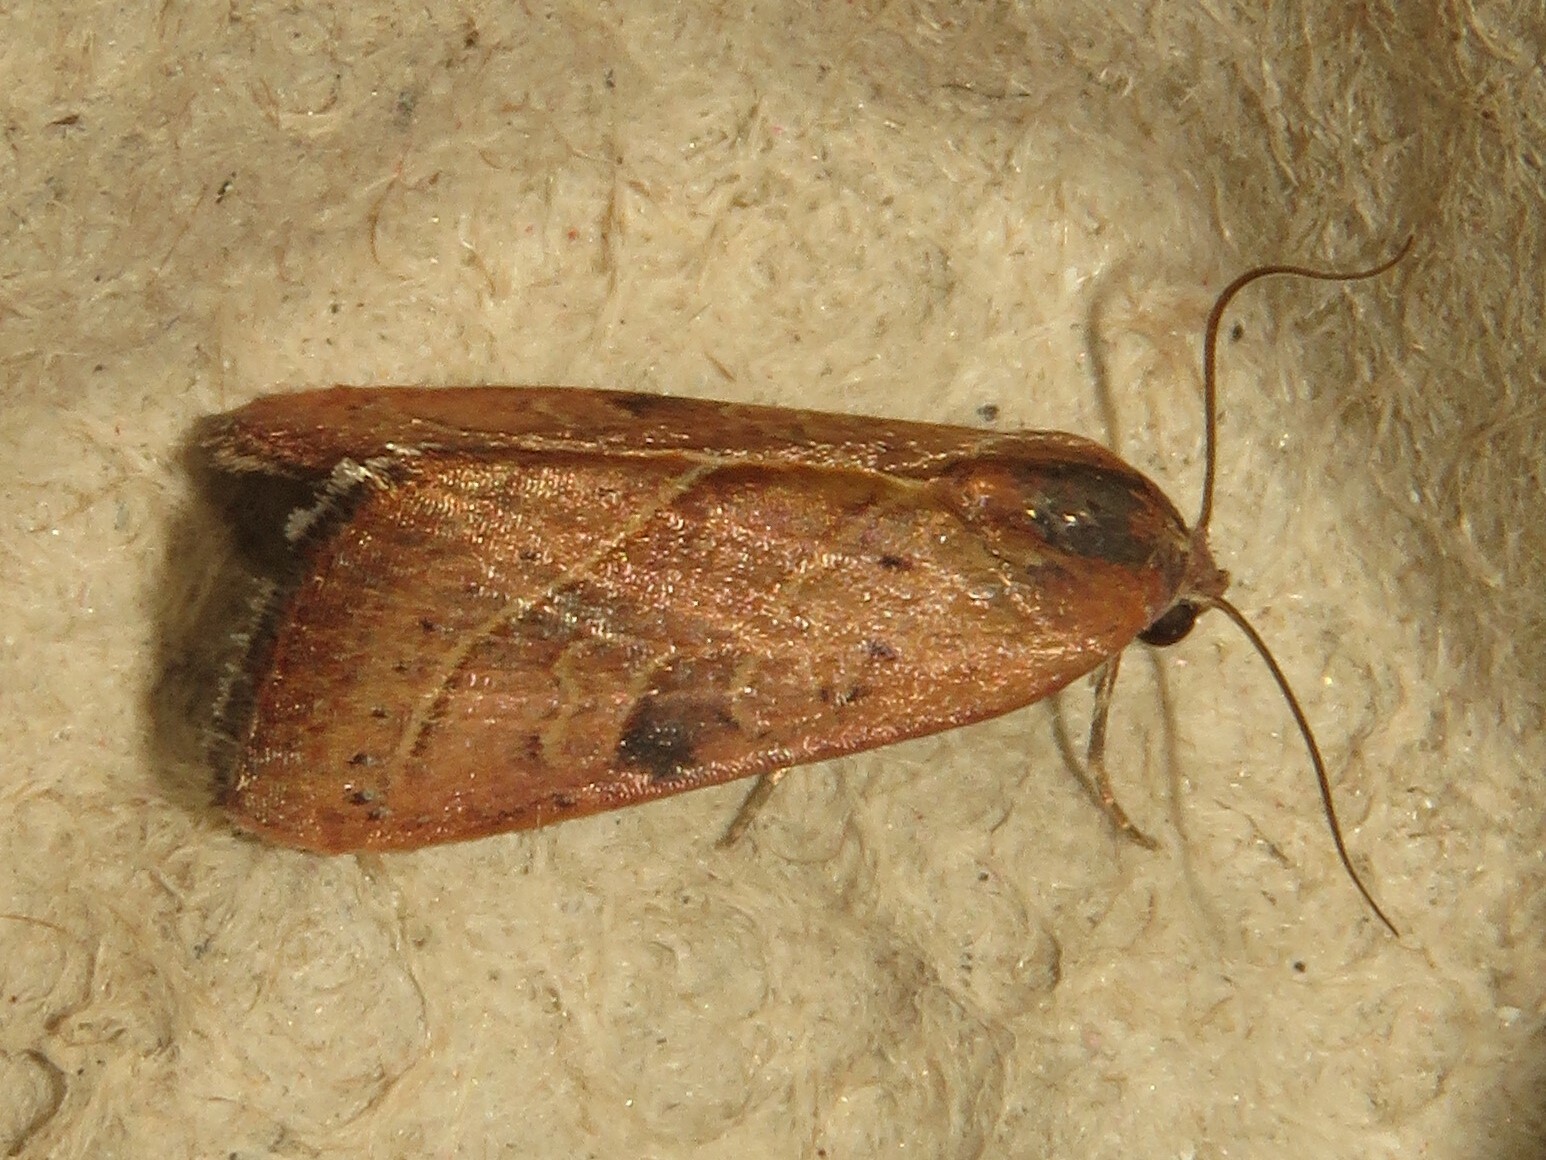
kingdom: Animalia
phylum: Arthropoda
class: Insecta
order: Lepidoptera
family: Noctuidae
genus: Galgula
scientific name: Galgula partita
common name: Wedgeling
